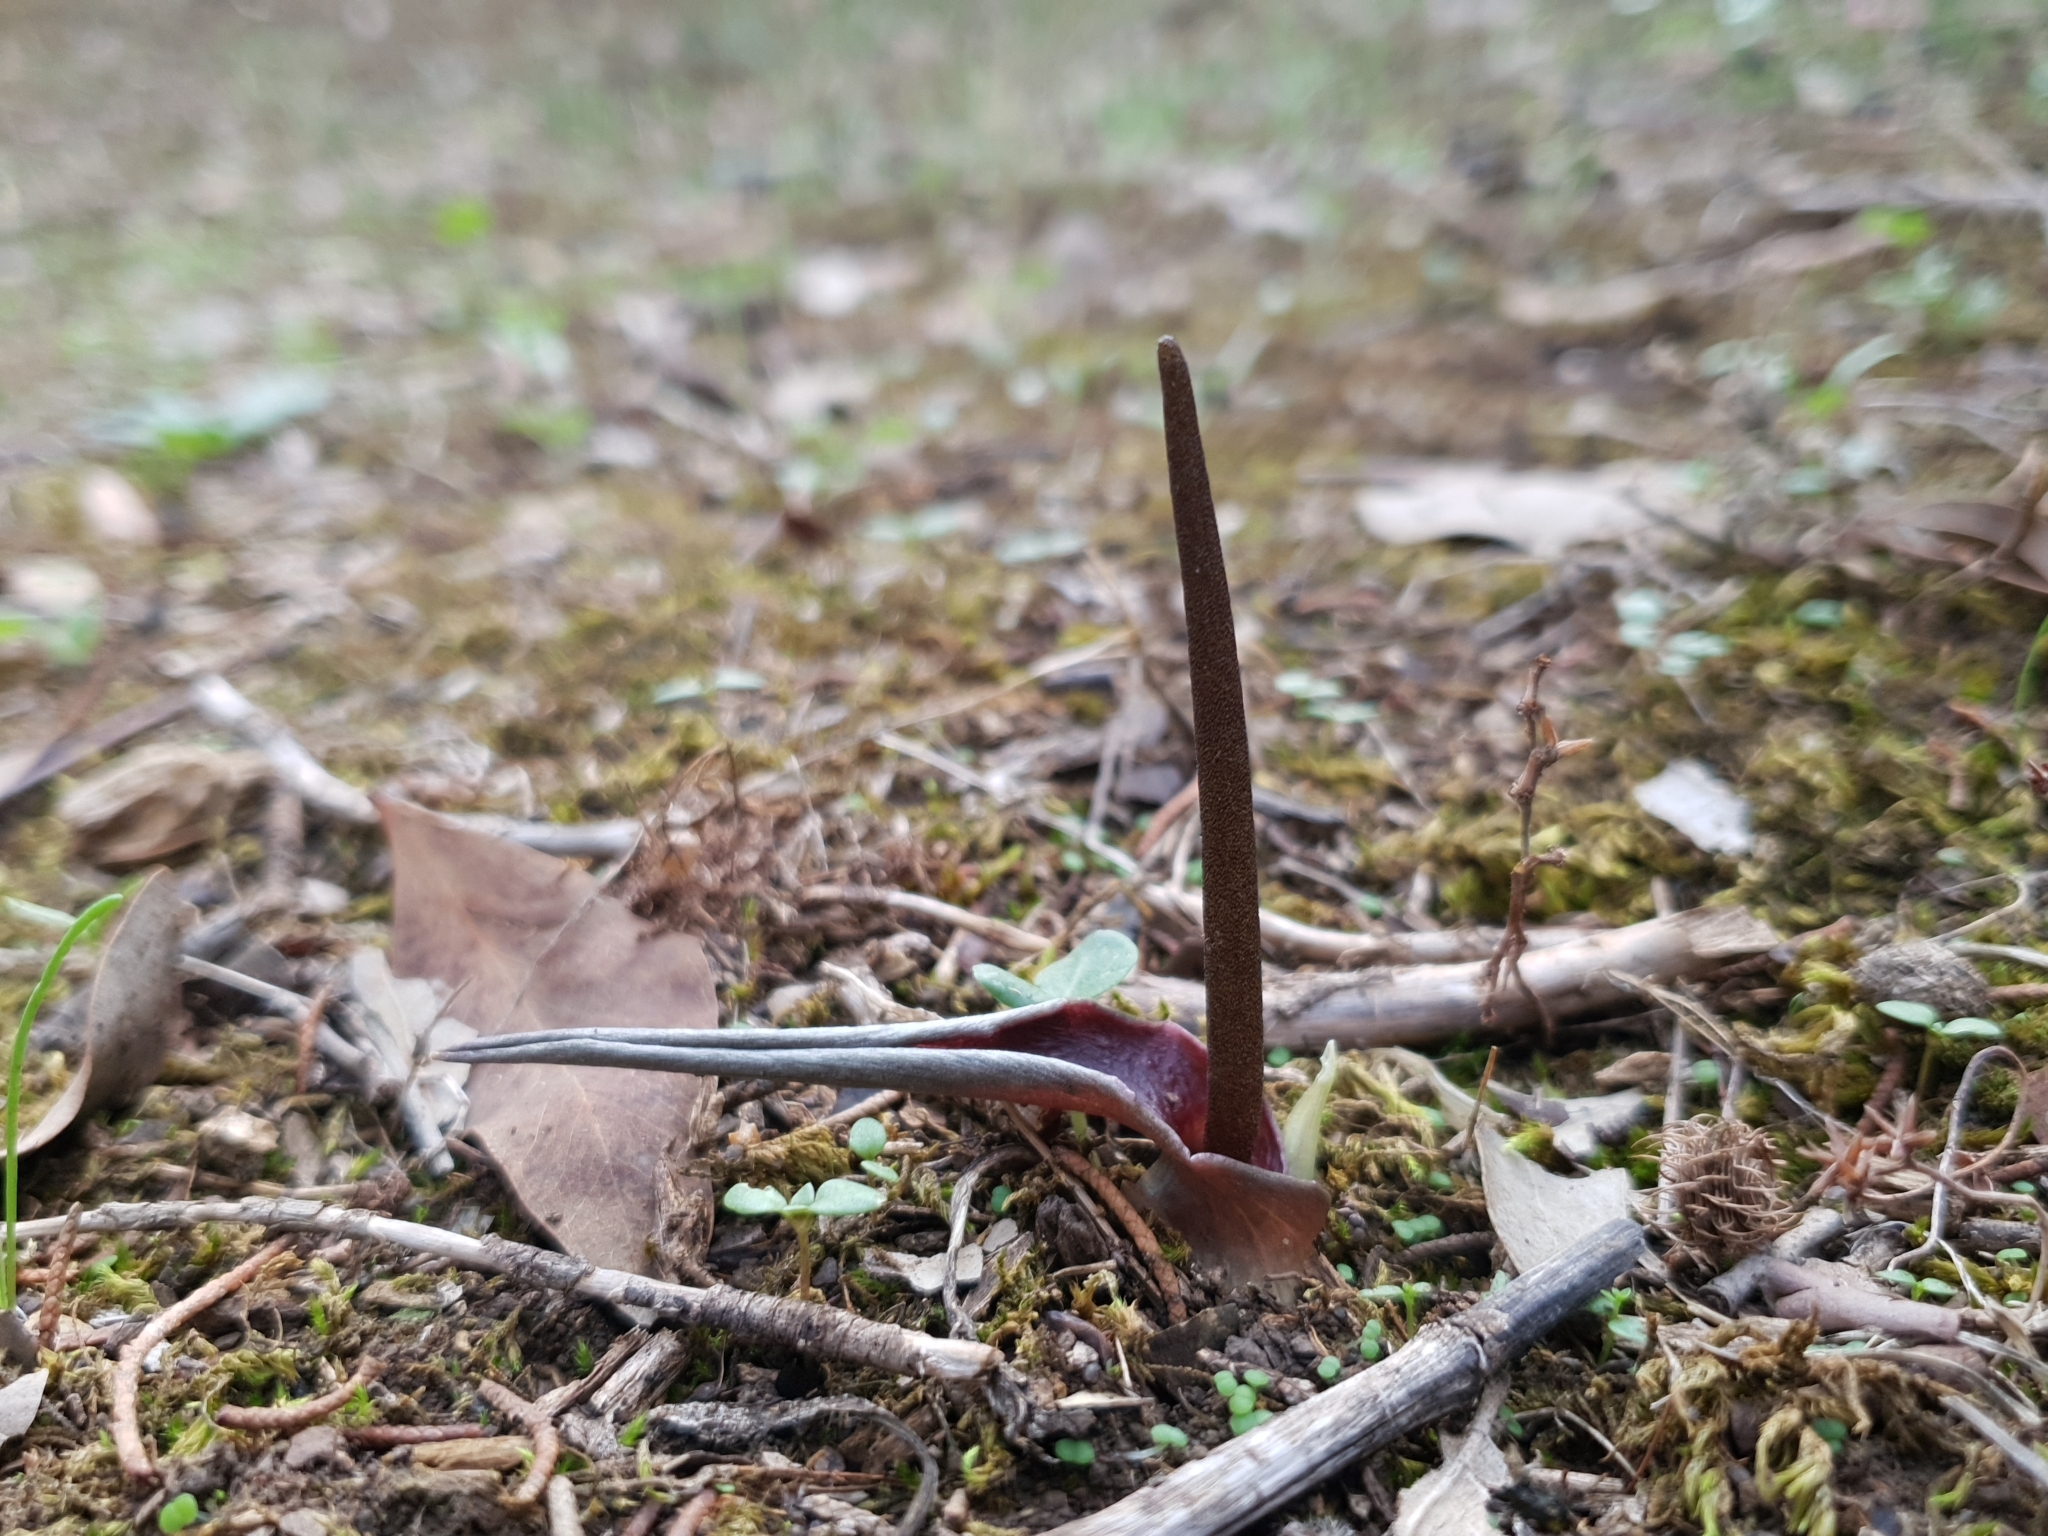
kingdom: Plantae
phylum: Tracheophyta
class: Liliopsida
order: Alismatales
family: Araceae
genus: Biarum
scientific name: Biarum dispar
